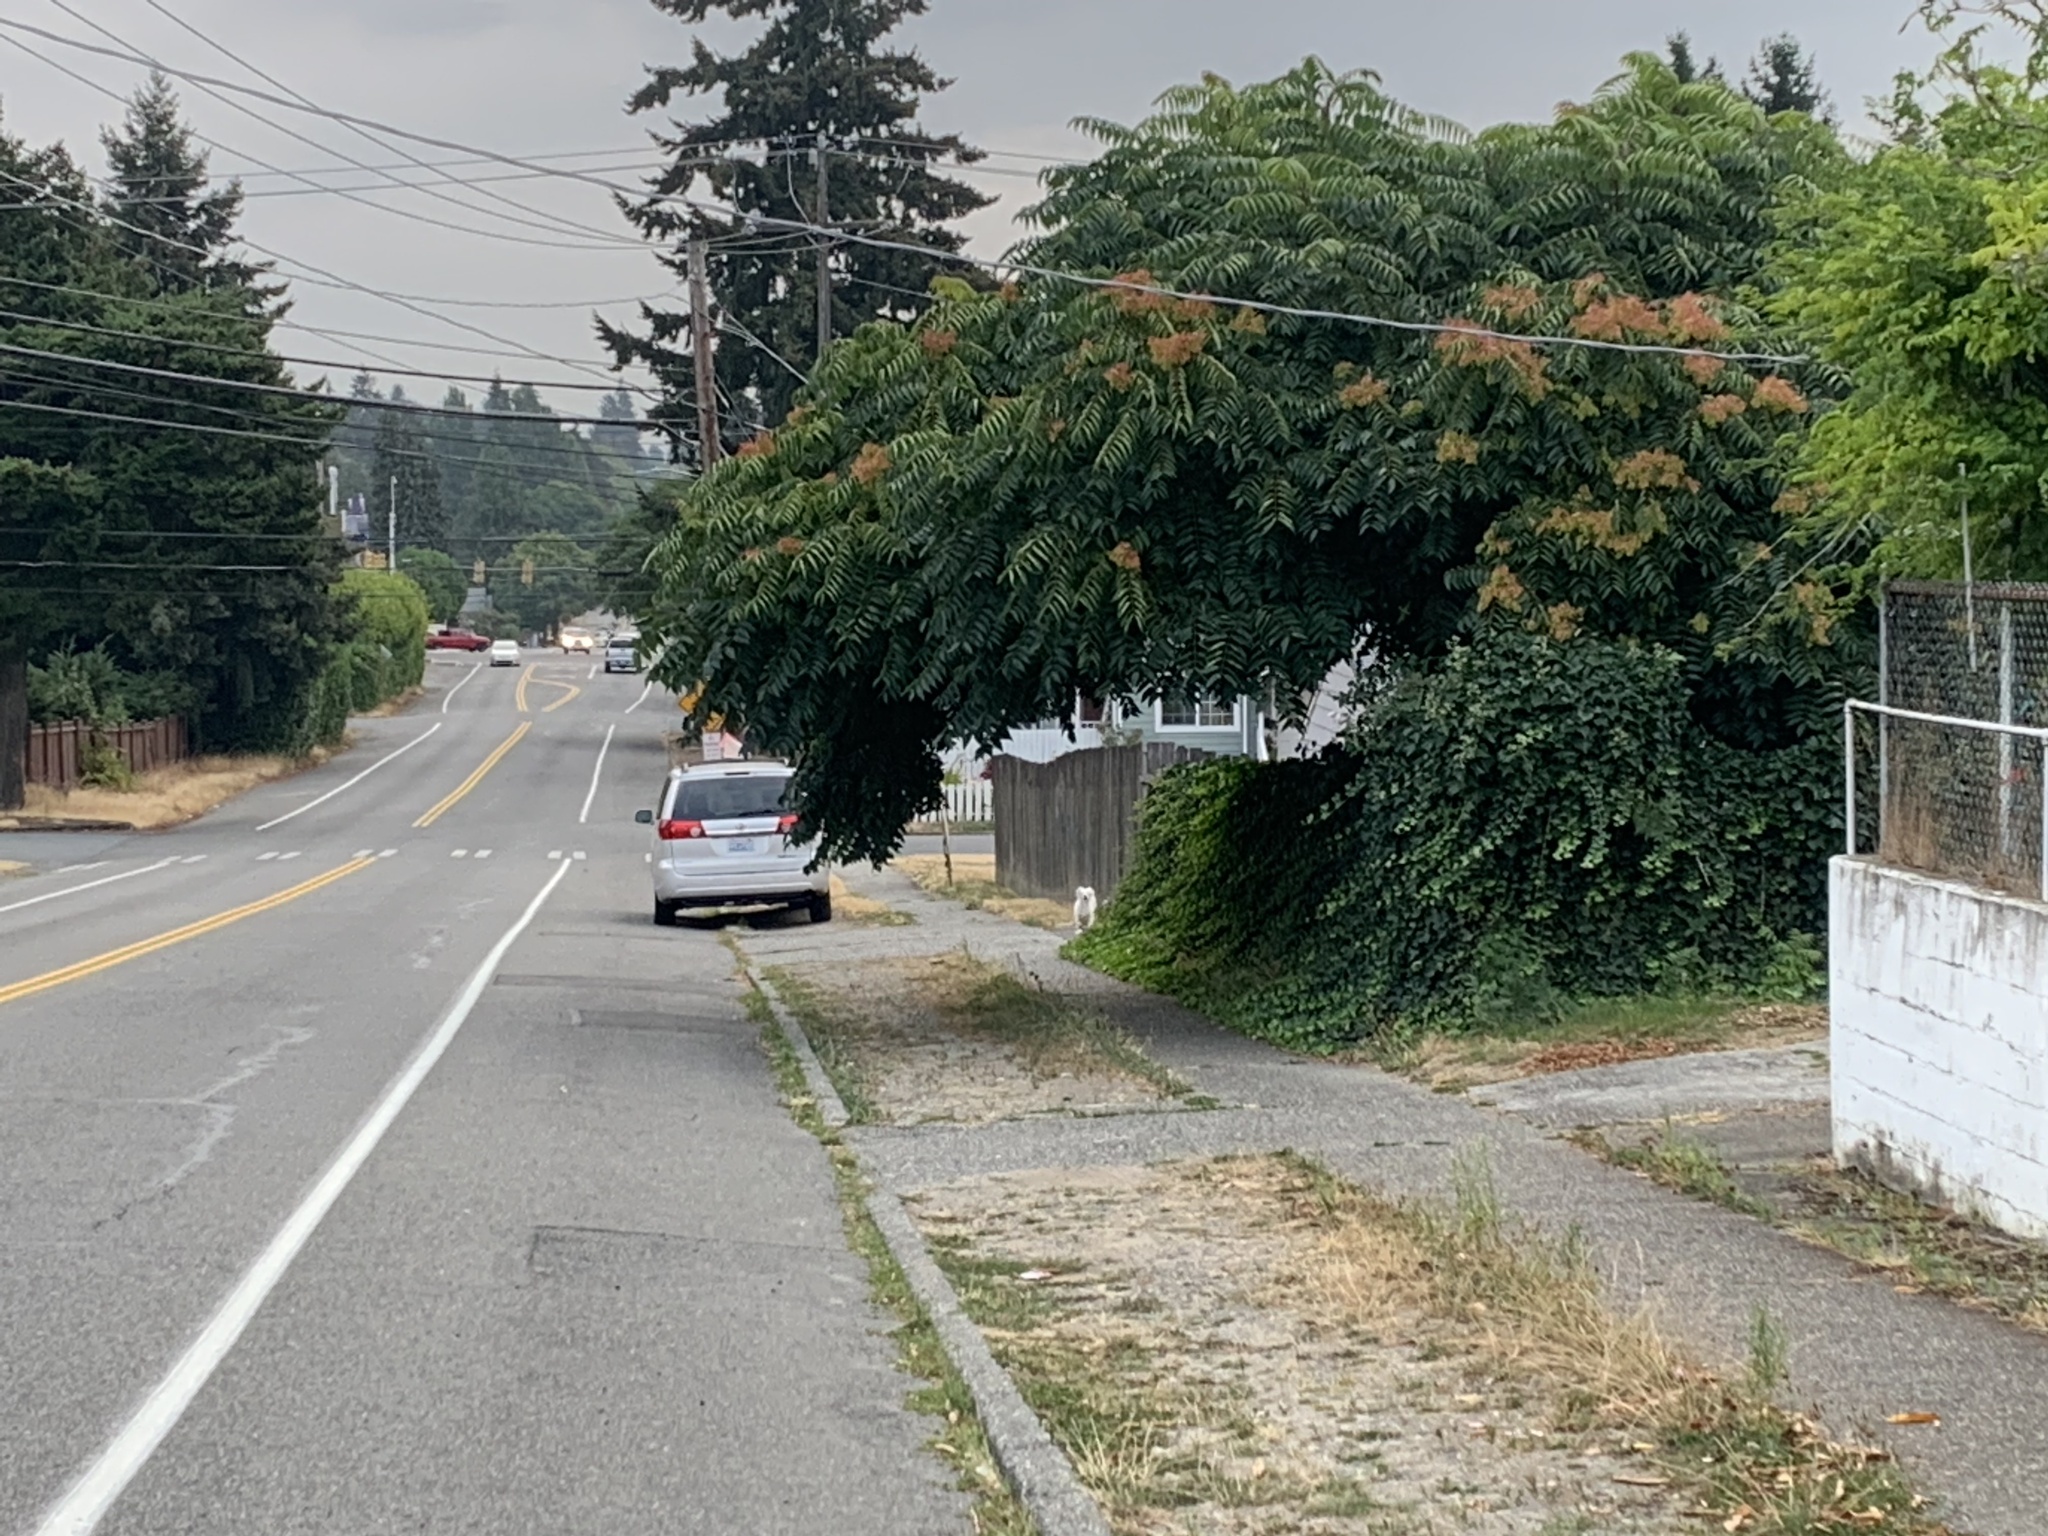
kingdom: Plantae
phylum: Tracheophyta
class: Magnoliopsida
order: Sapindales
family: Simaroubaceae
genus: Ailanthus
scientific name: Ailanthus altissima
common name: Tree-of-heaven
